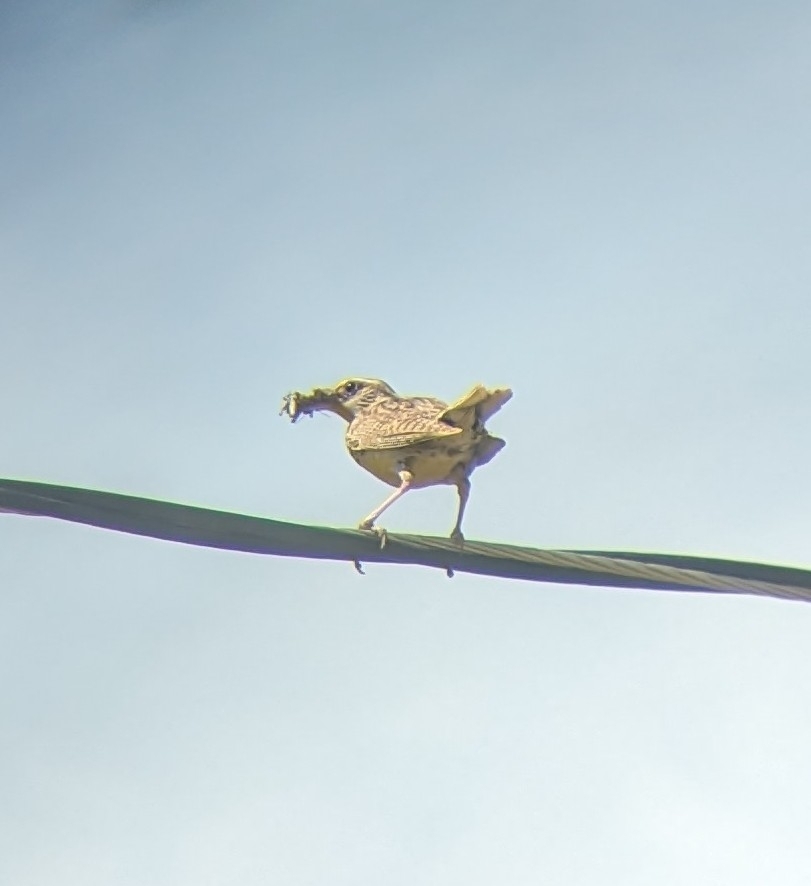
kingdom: Animalia
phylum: Chordata
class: Aves
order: Passeriformes
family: Icteridae
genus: Sturnella
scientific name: Sturnella neglecta
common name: Western meadowlark
